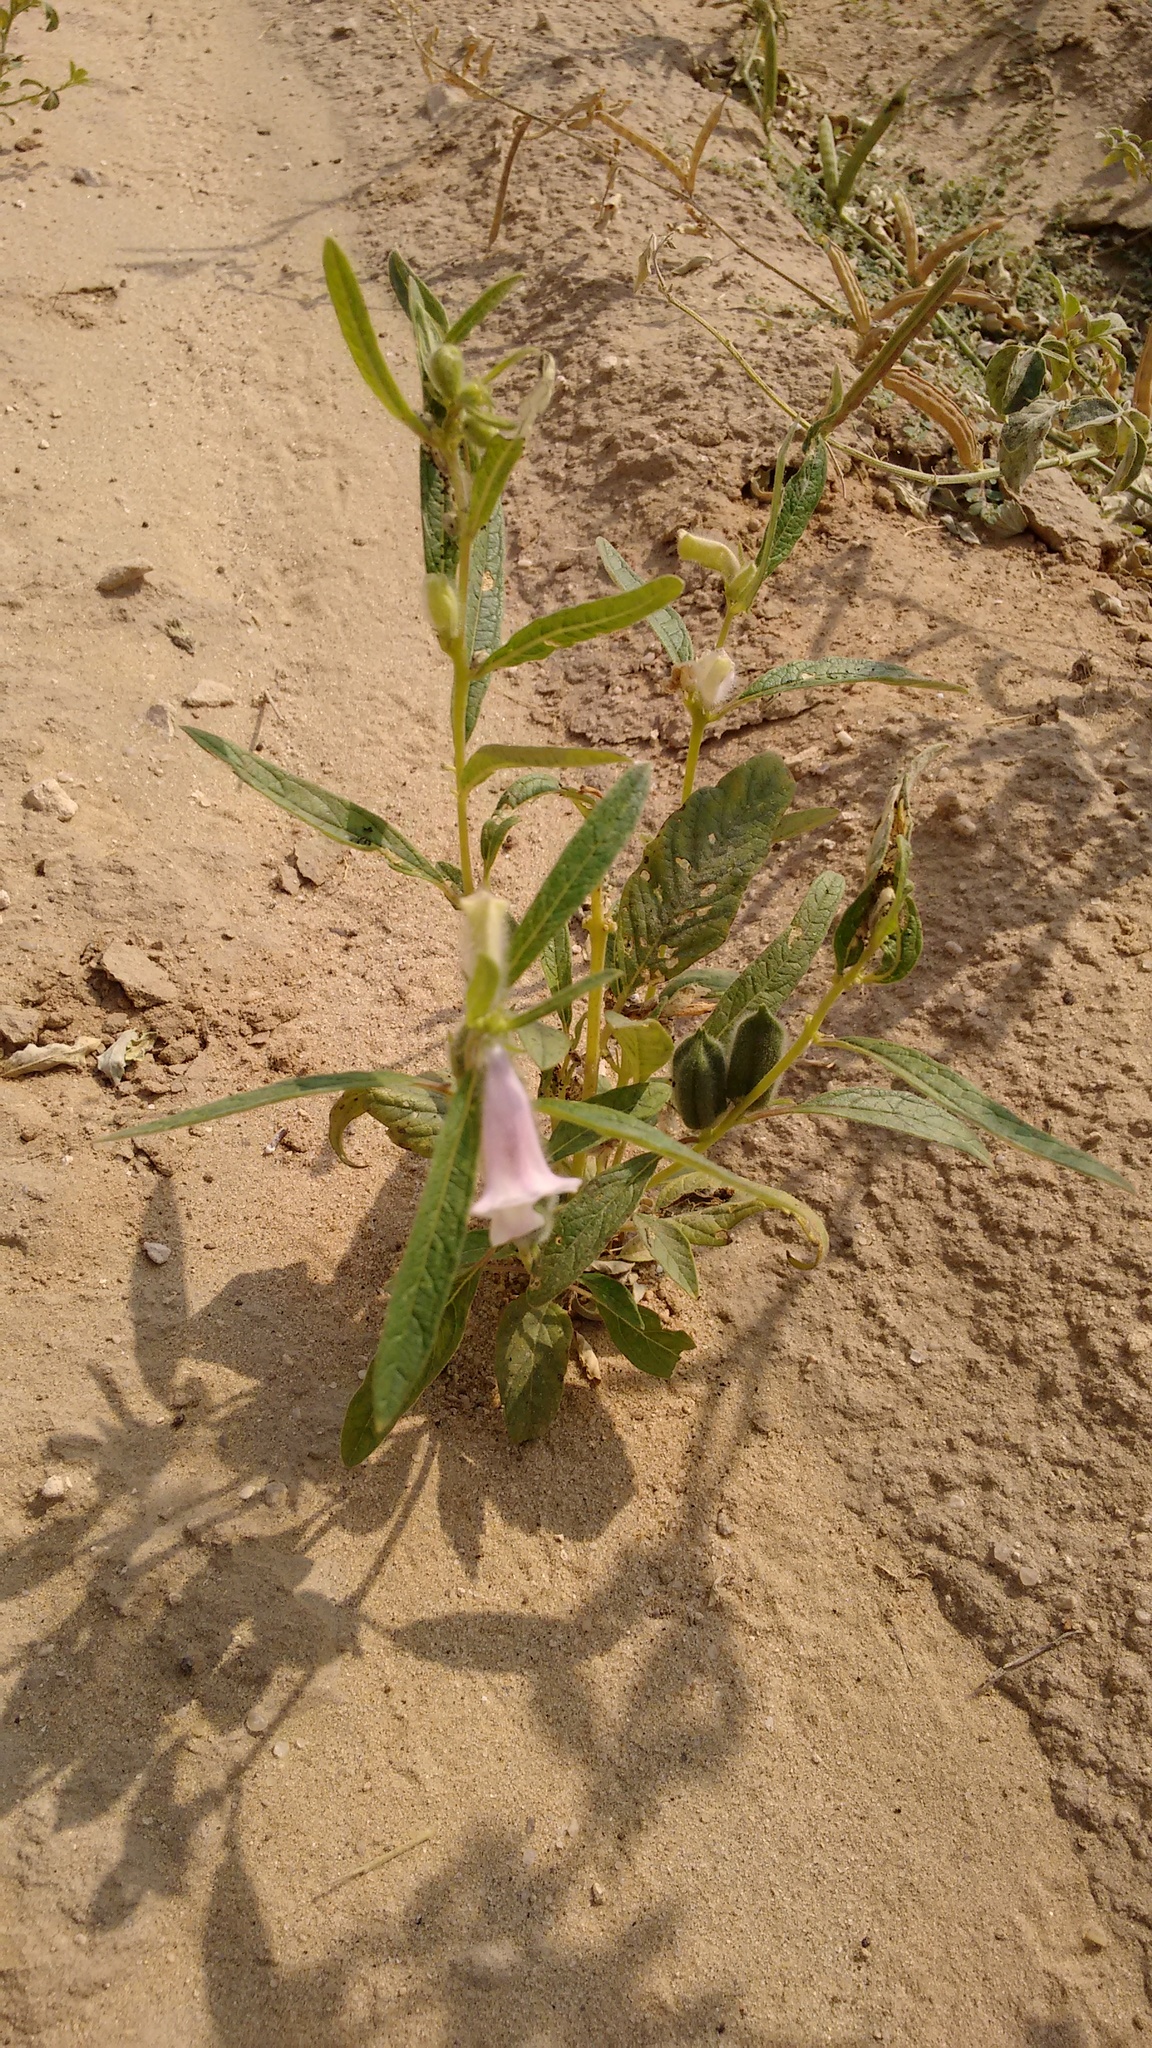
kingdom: Plantae
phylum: Tracheophyta
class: Magnoliopsida
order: Lamiales
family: Pedaliaceae
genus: Sesamum
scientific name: Sesamum indicum
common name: Sesame
